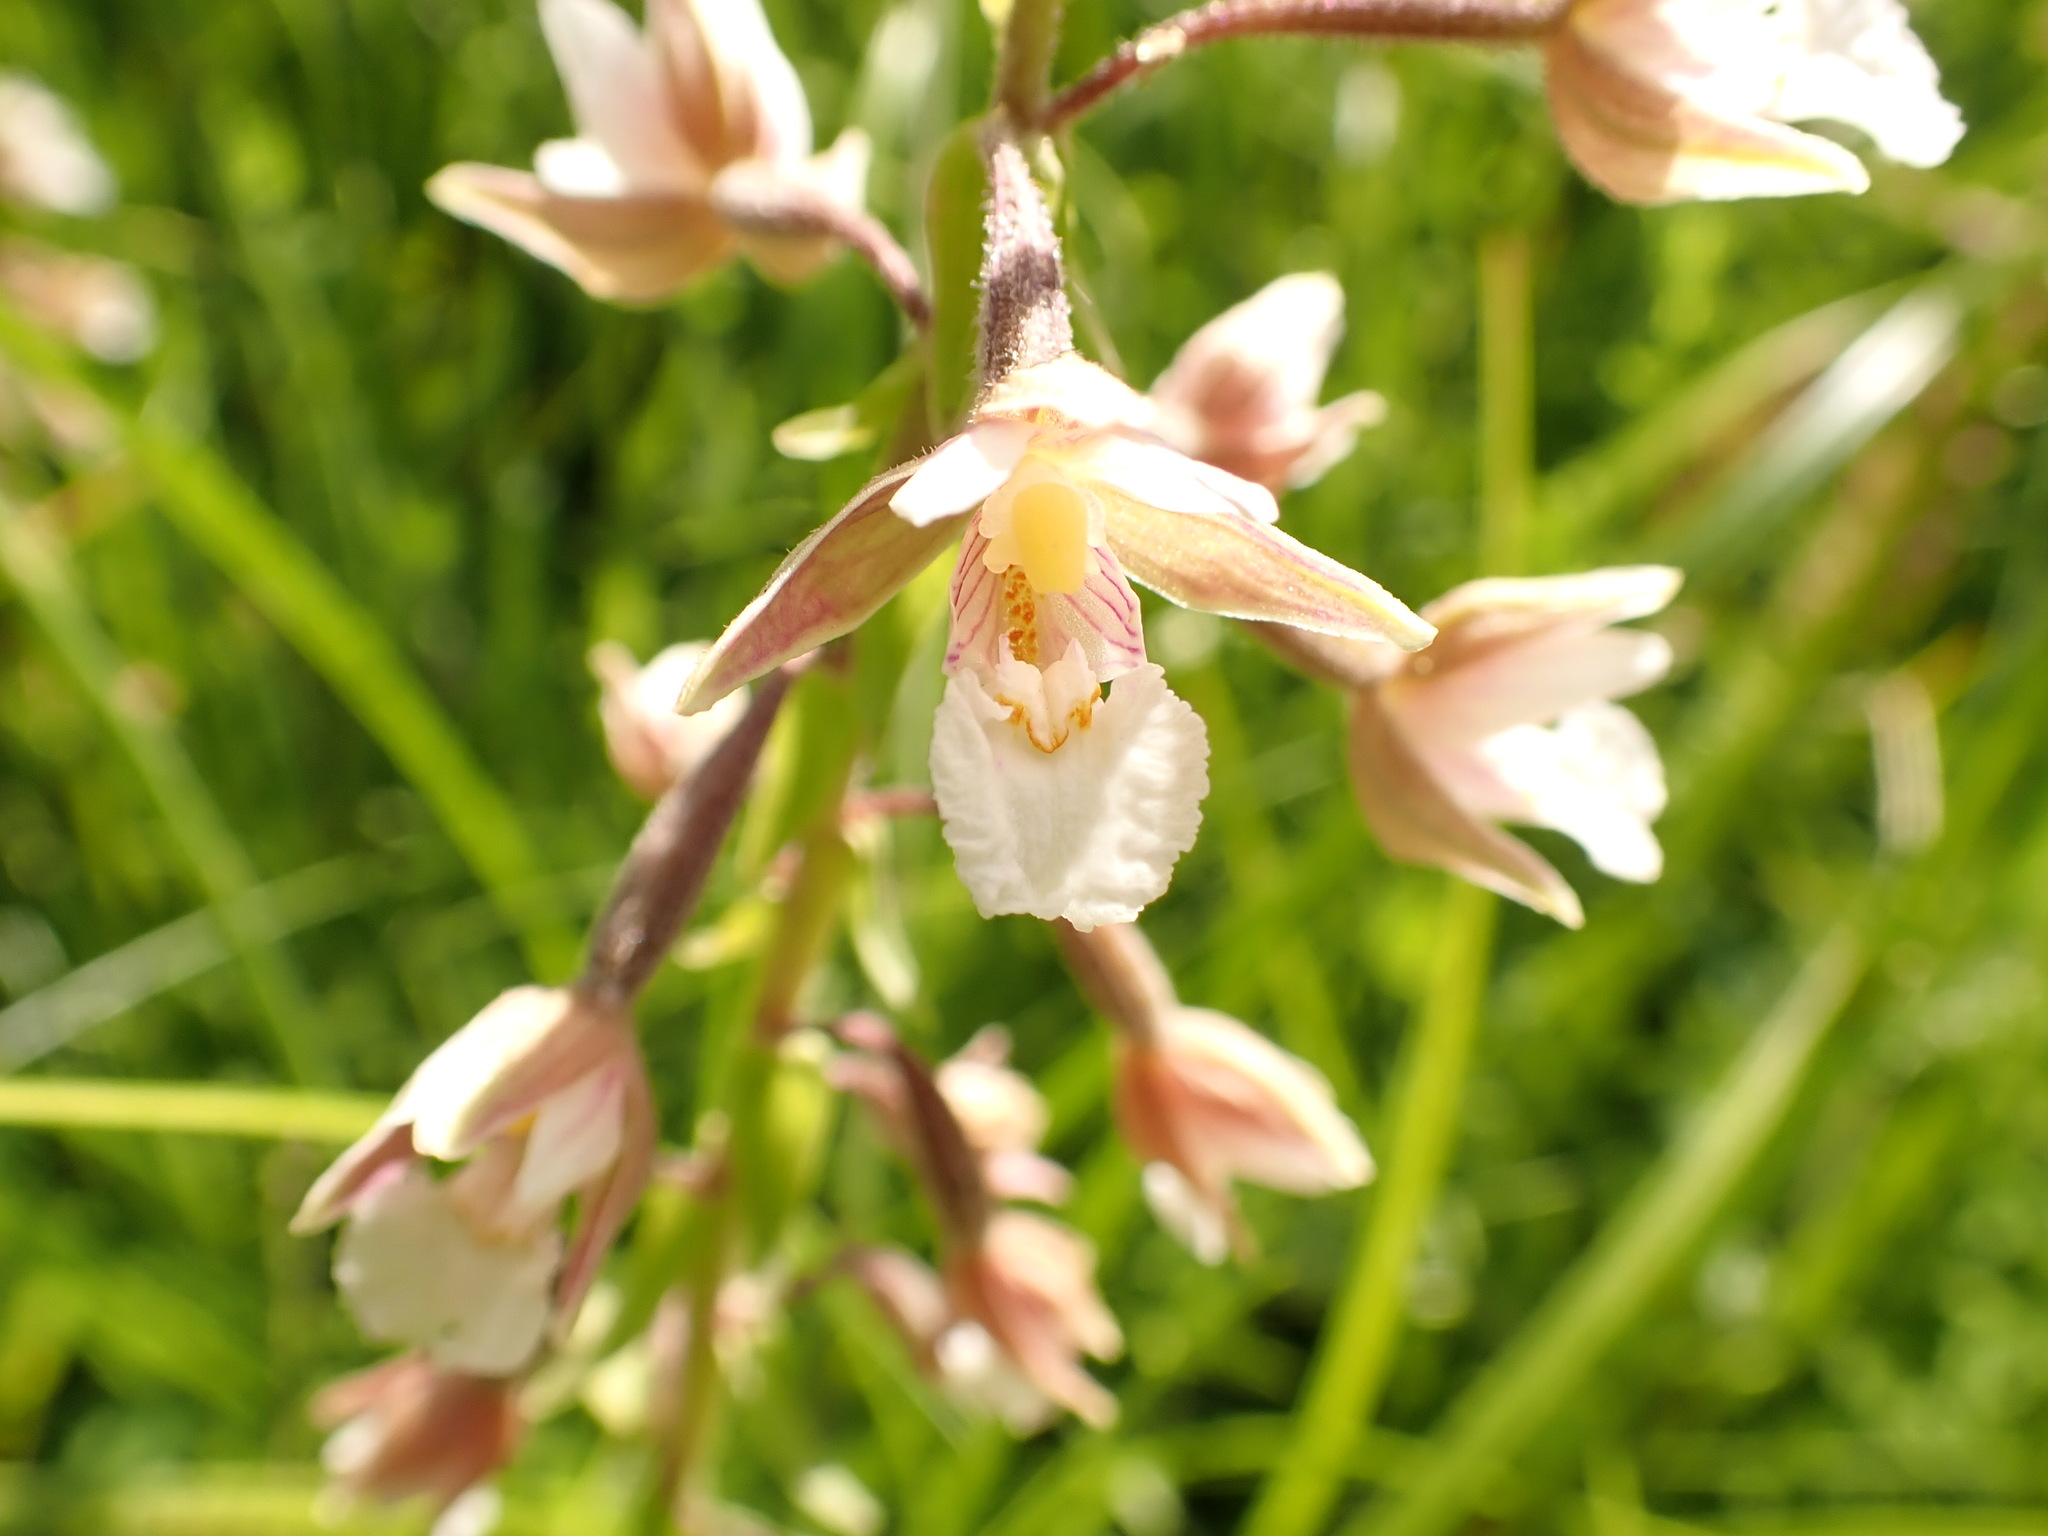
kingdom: Plantae
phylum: Tracheophyta
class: Liliopsida
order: Asparagales
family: Orchidaceae
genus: Epipactis
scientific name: Epipactis palustris
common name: Marsh helleborine
